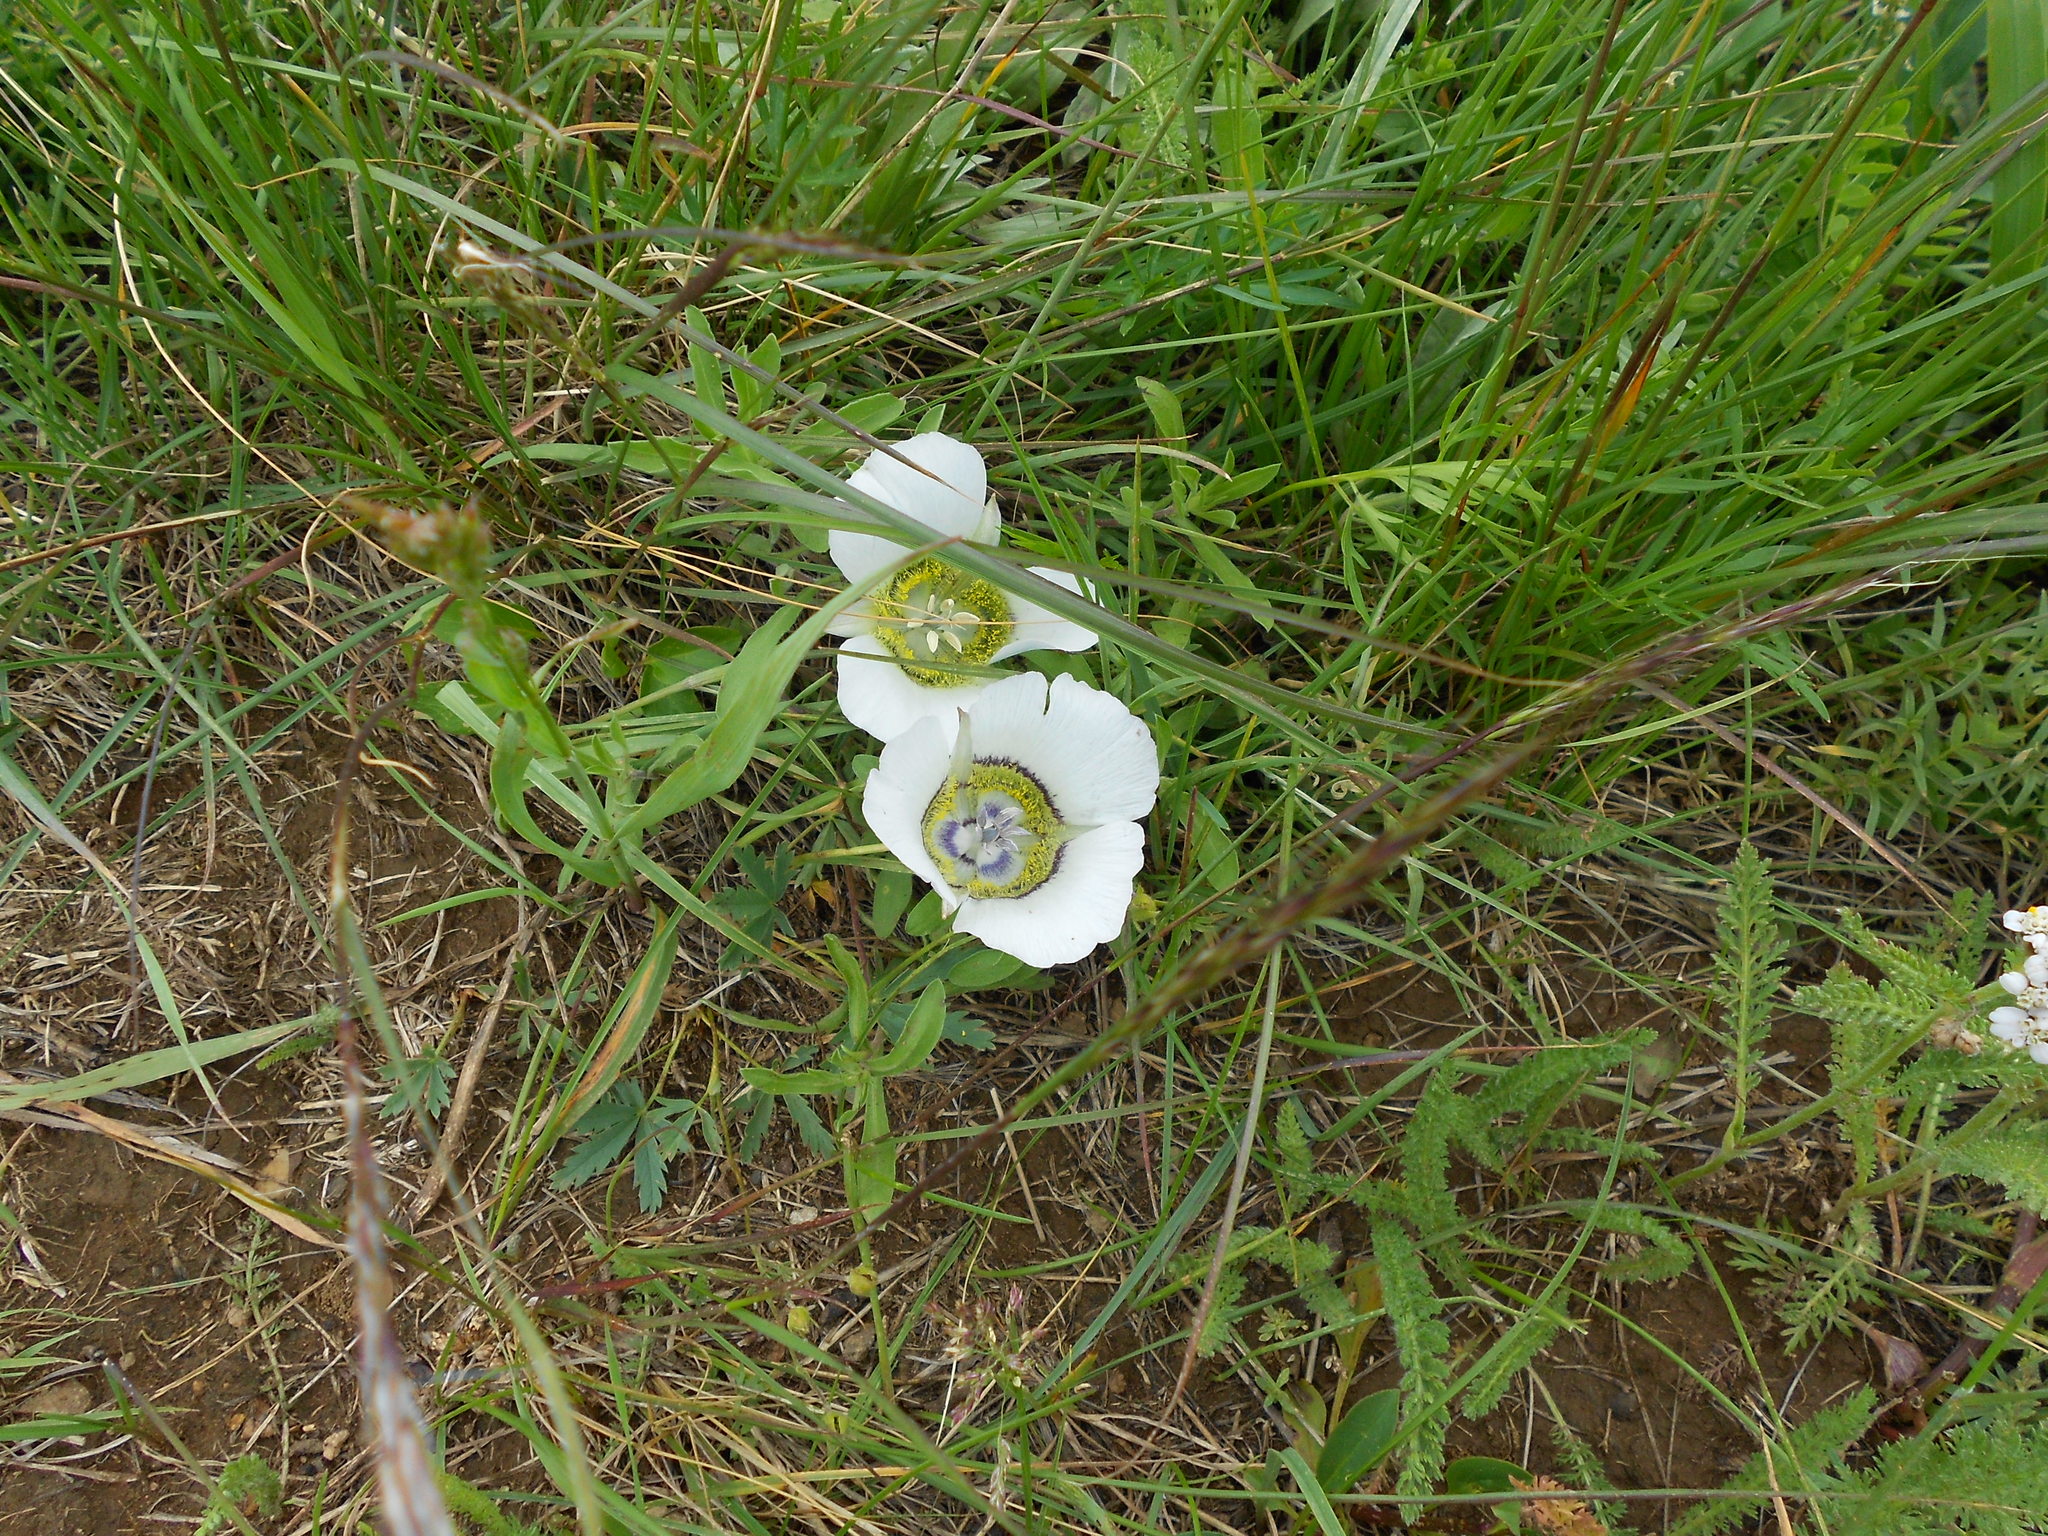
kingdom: Plantae
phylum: Tracheophyta
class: Liliopsida
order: Liliales
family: Liliaceae
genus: Calochortus
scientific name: Calochortus gunnisonii
